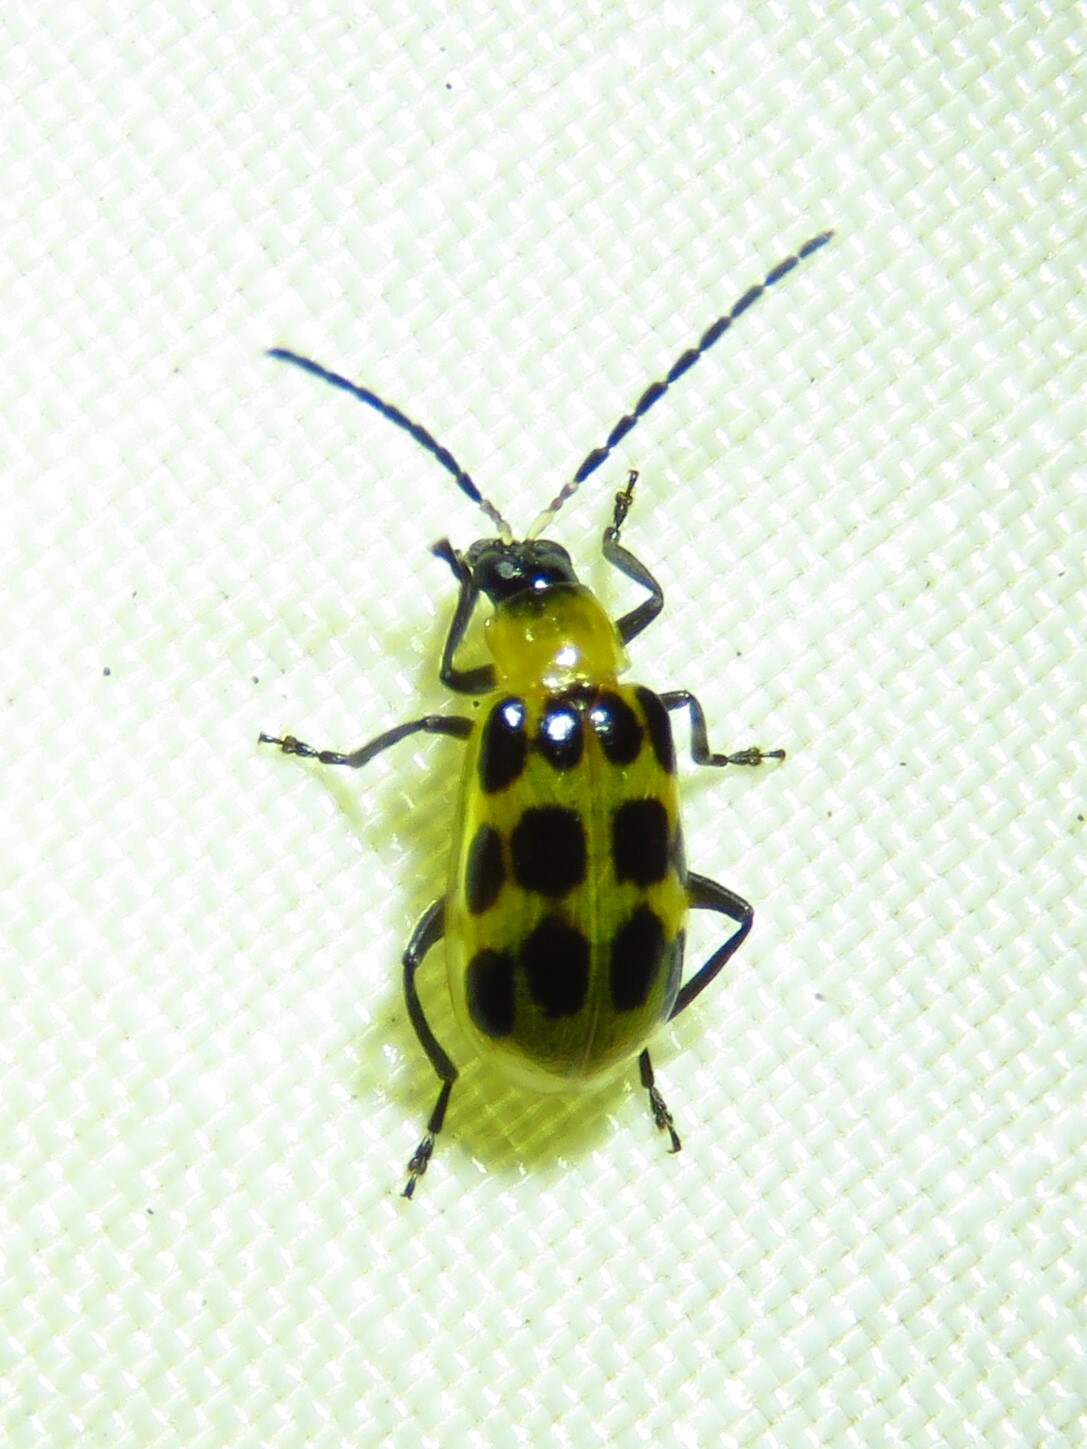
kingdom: Animalia
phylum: Arthropoda
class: Insecta
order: Coleoptera
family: Chrysomelidae
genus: Diabrotica
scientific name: Diabrotica undecimpunctata
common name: Spotted cucumber beetle
